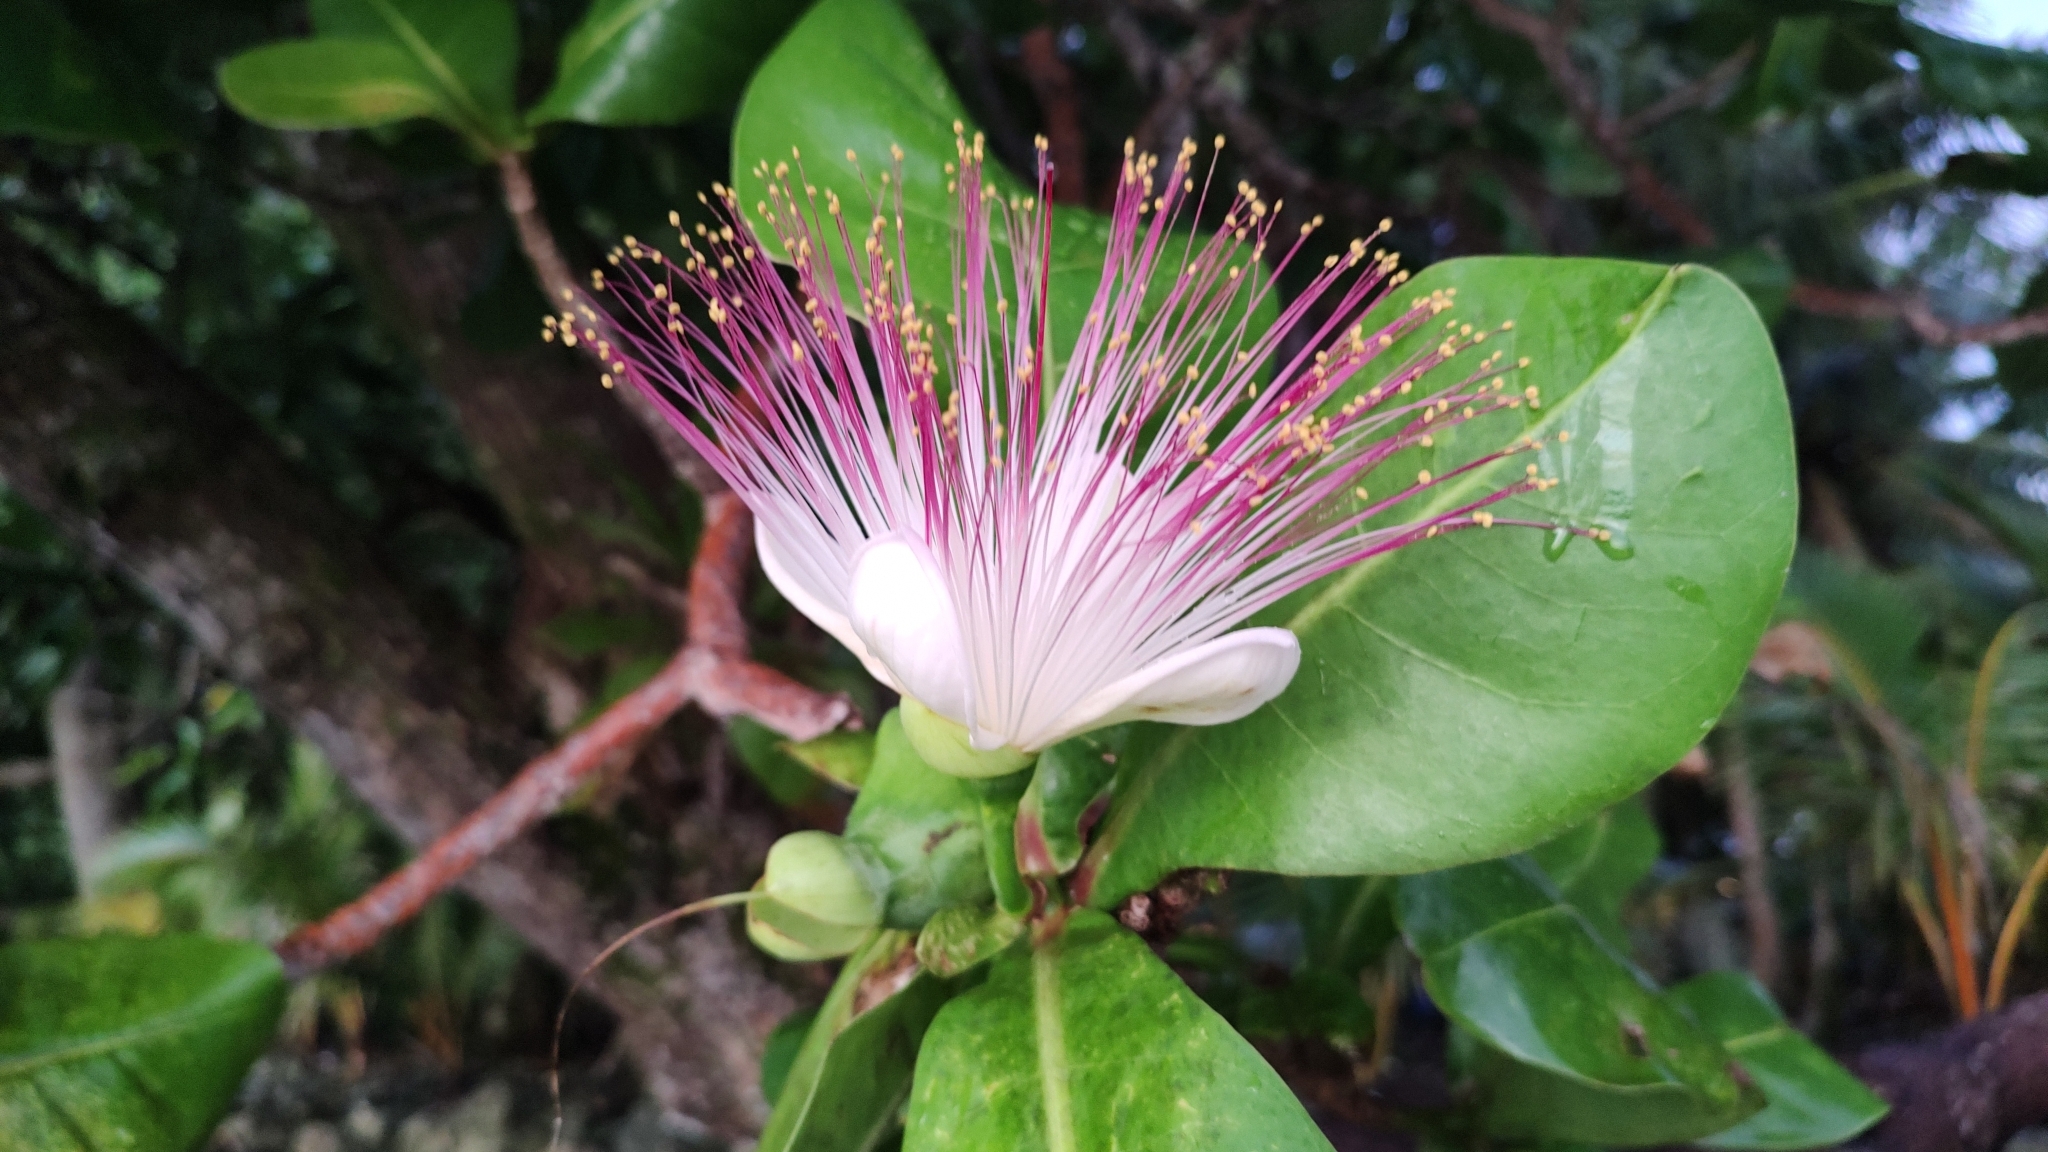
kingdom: Plantae
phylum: Tracheophyta
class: Magnoliopsida
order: Ericales
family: Lecythidaceae
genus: Barringtonia
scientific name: Barringtonia asiatica
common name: Mango-pine
